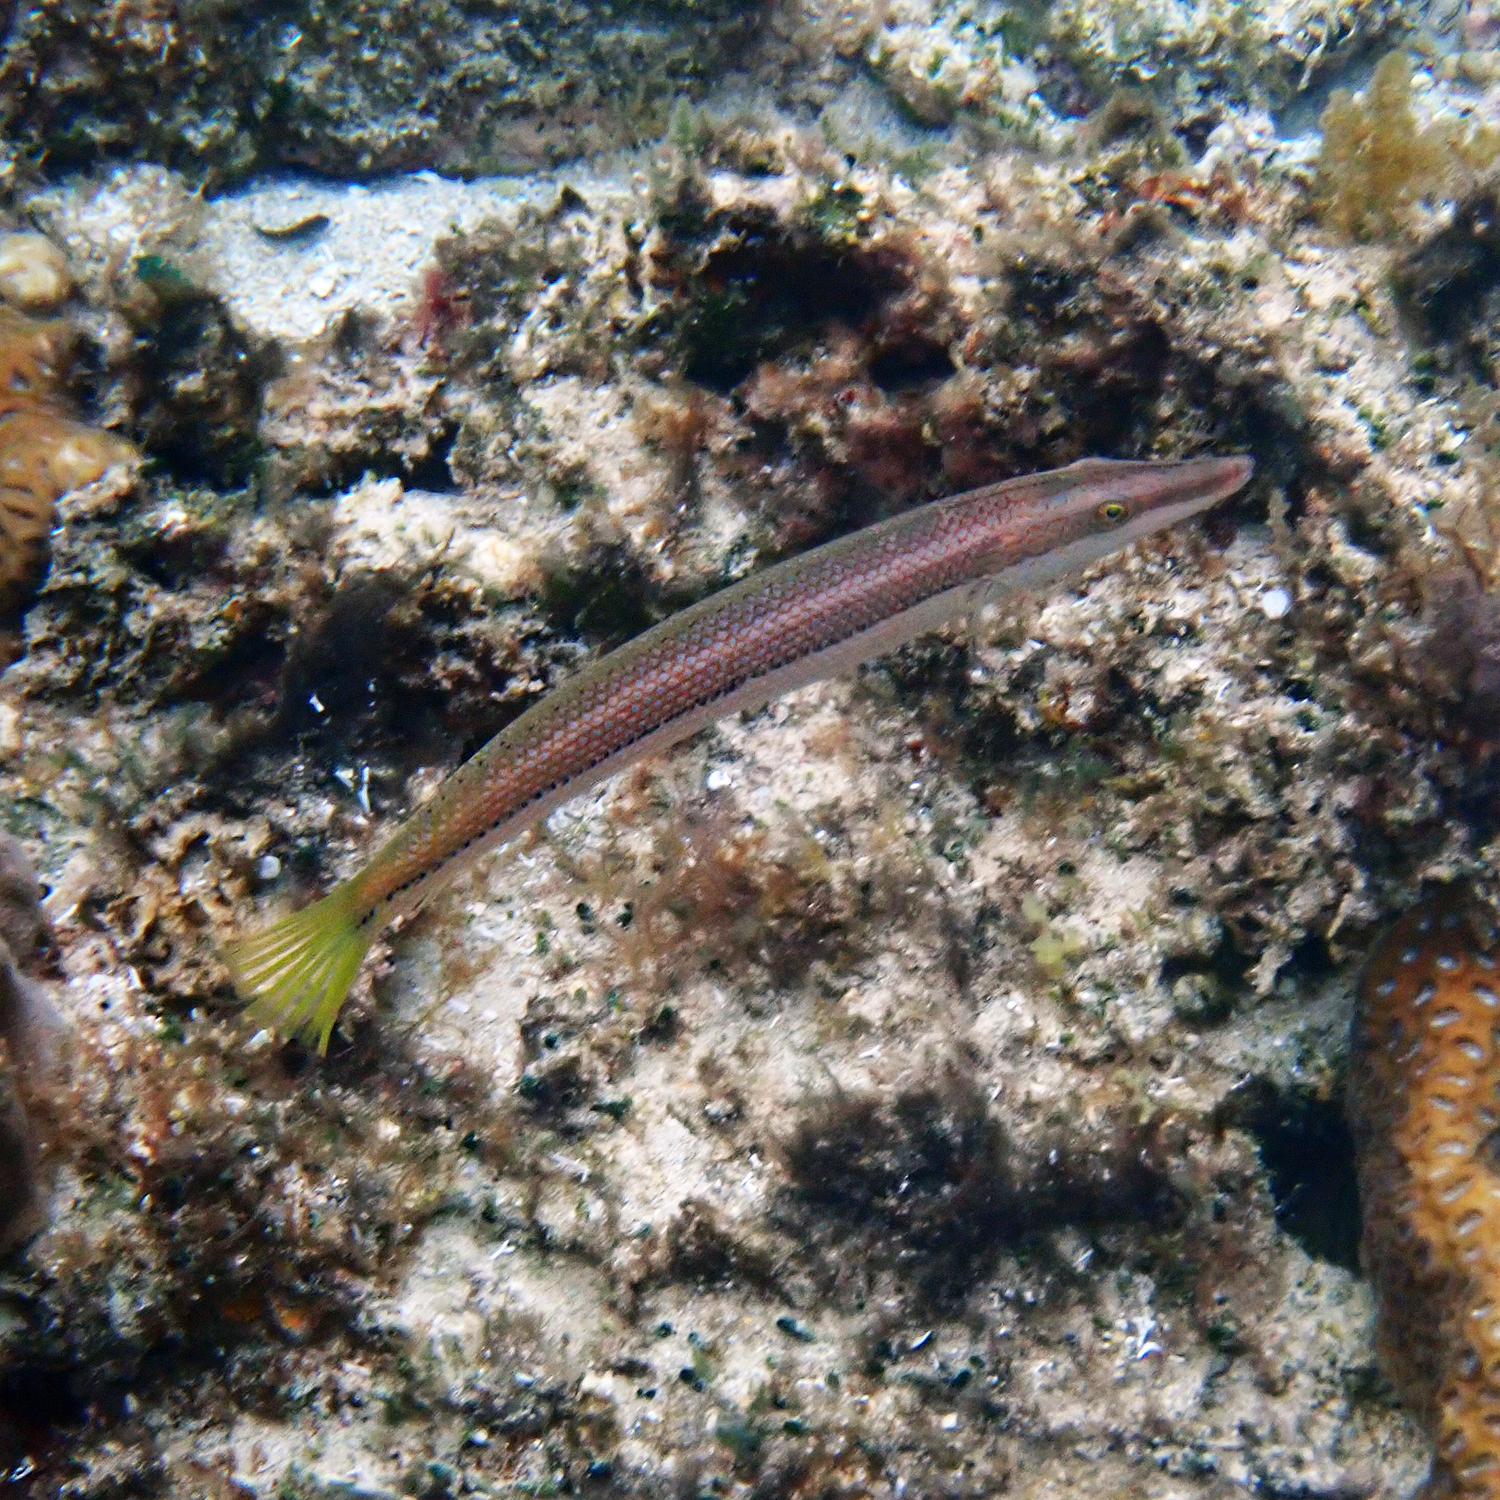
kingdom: Animalia
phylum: Chordata
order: Perciformes
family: Labridae
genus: Cheilio
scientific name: Cheilio inermis
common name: Cigar wrasse
